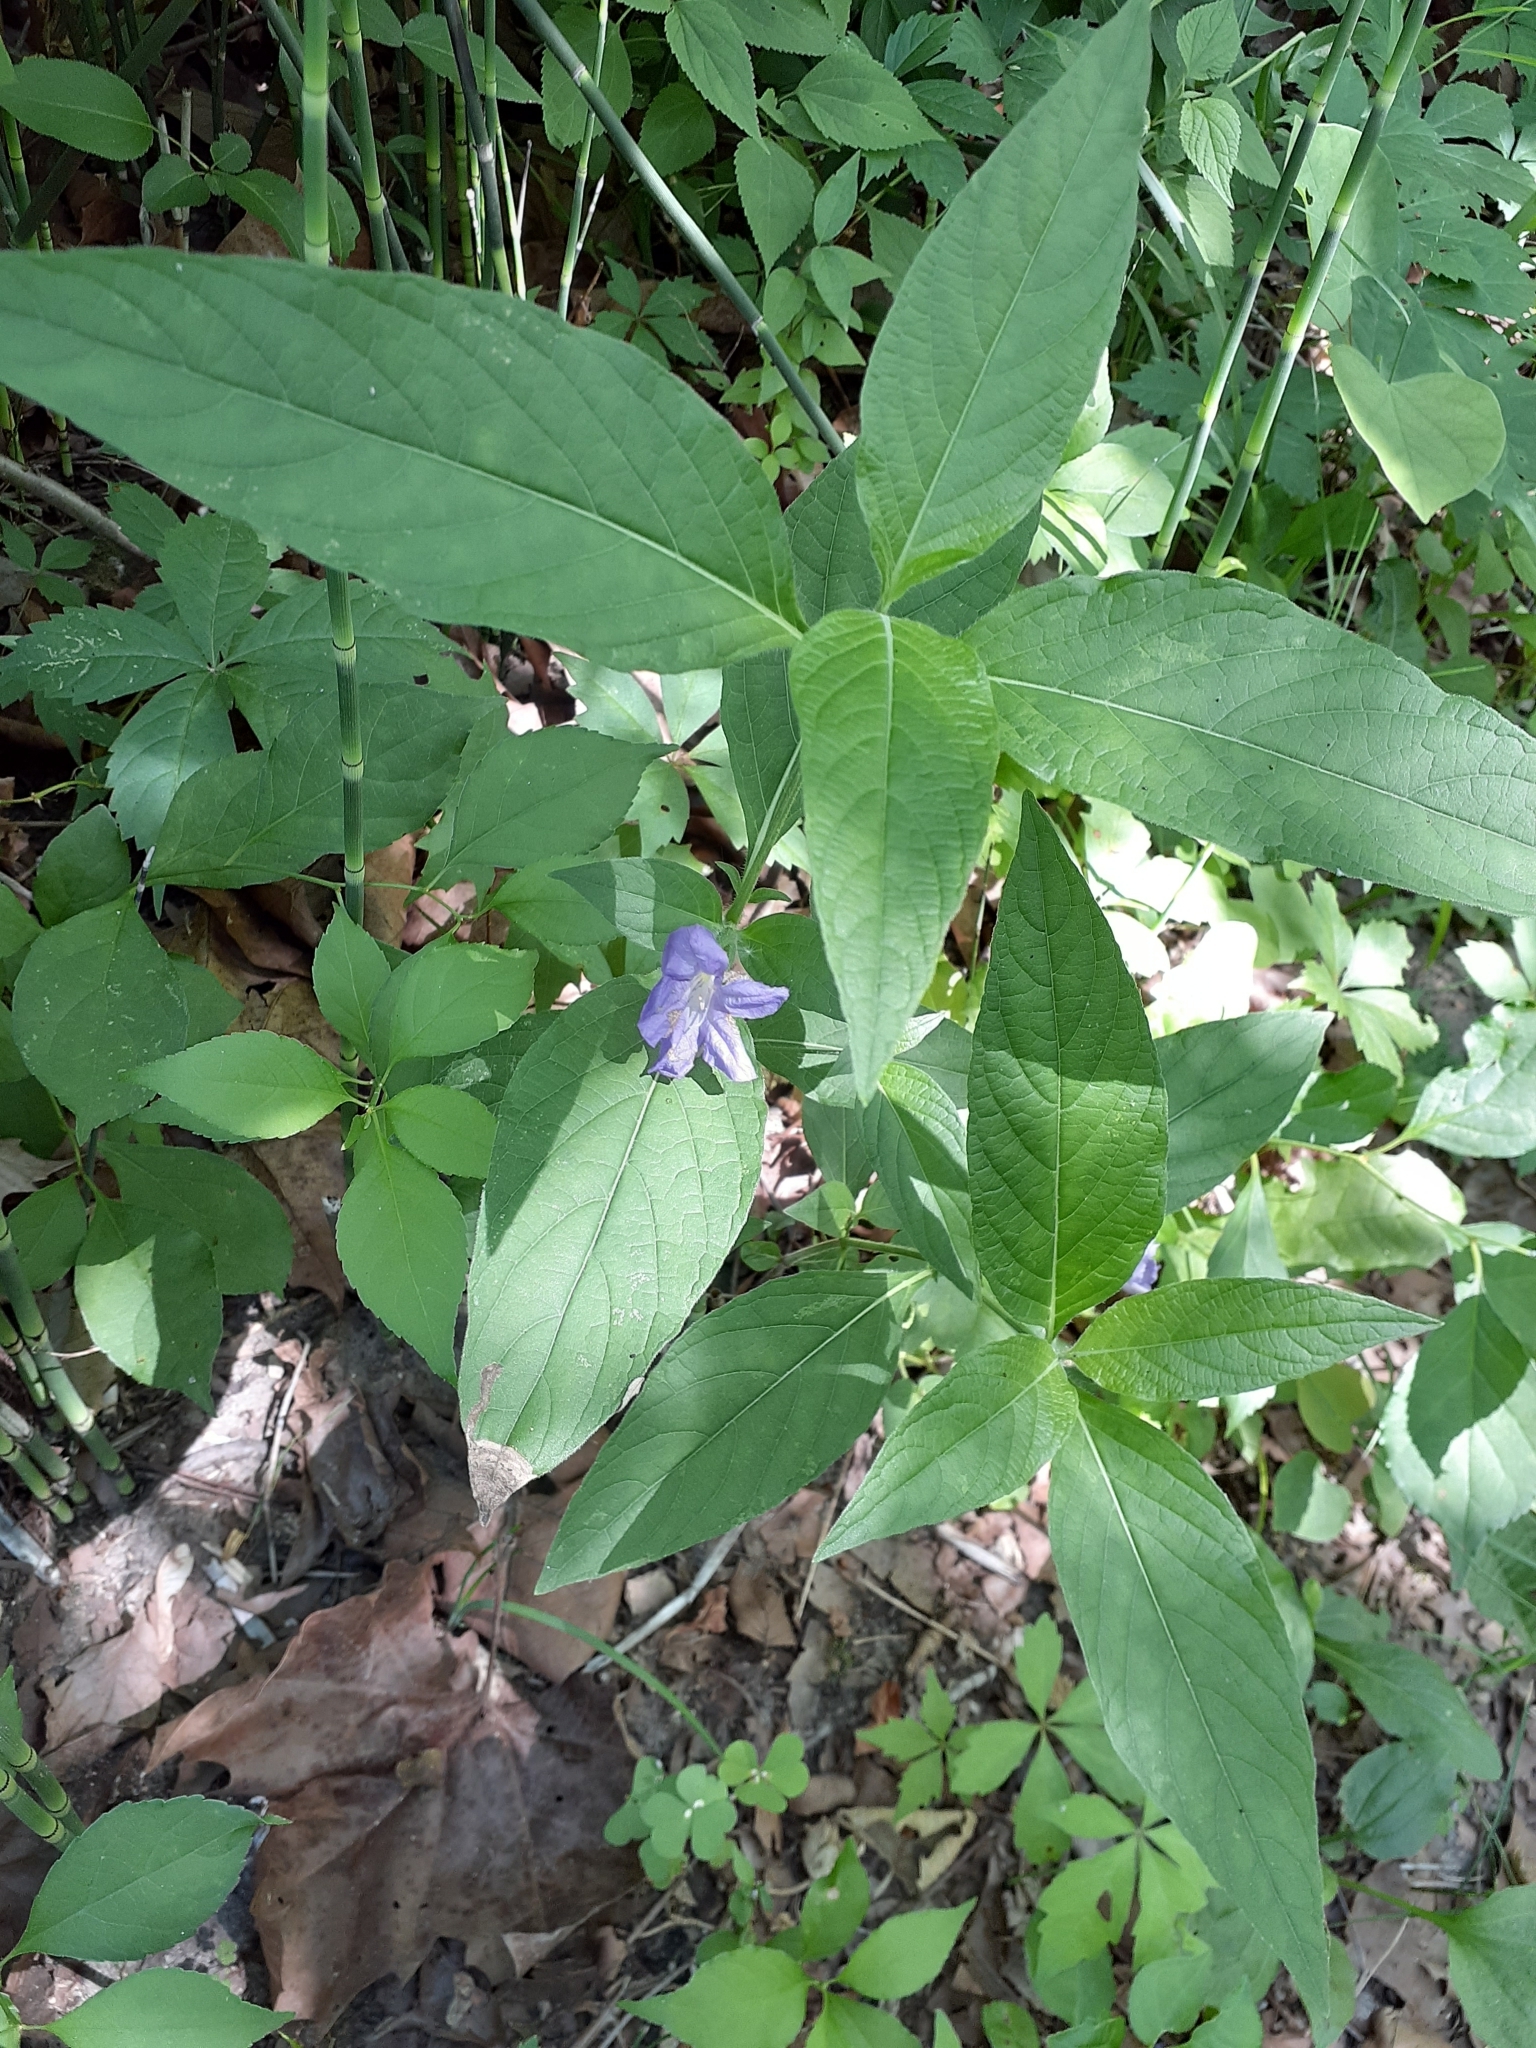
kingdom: Plantae
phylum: Tracheophyta
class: Magnoliopsida
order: Lamiales
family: Acanthaceae
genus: Ruellia
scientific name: Ruellia strepens
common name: Limestone wild petunia
